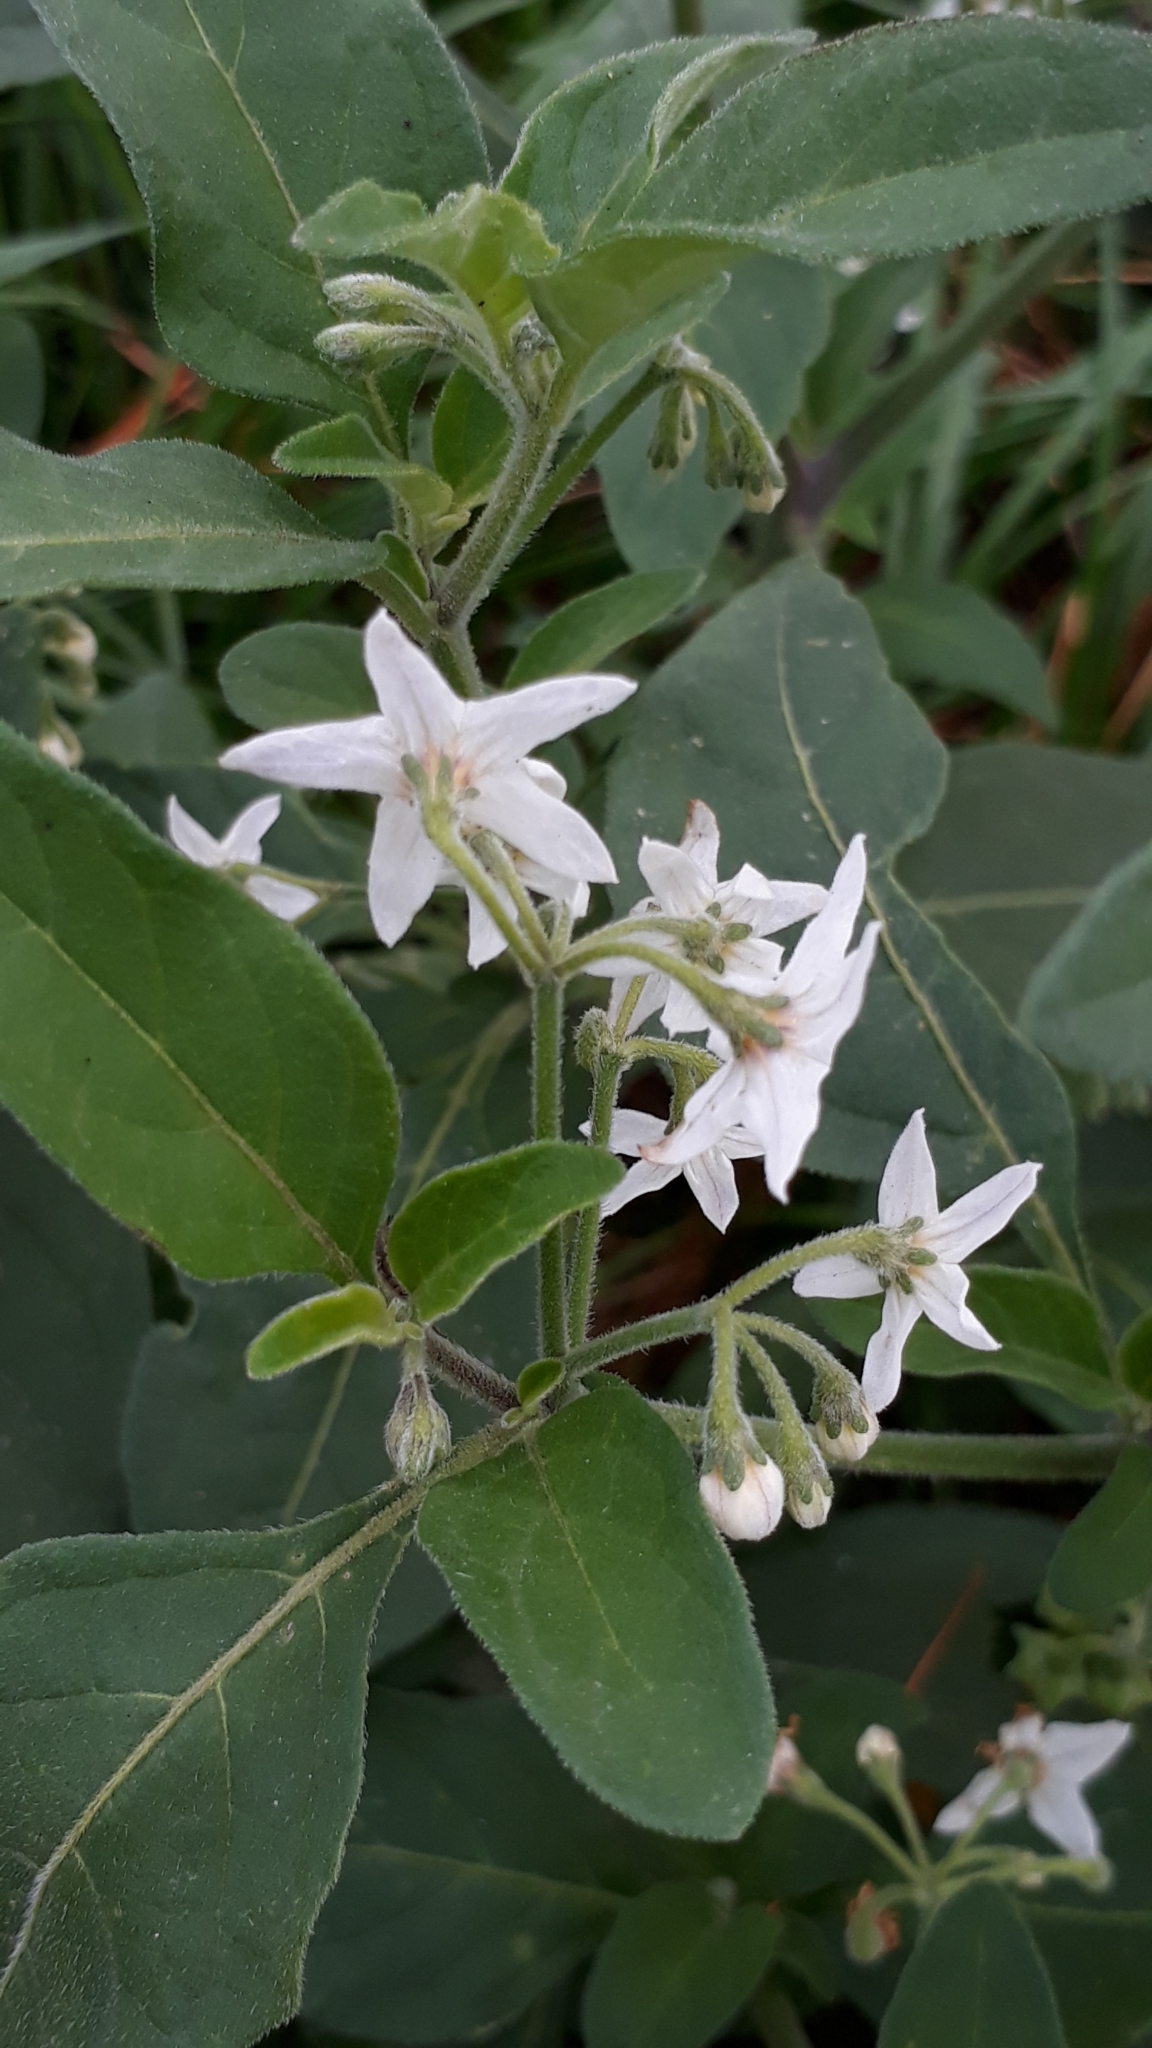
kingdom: Plantae
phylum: Tracheophyta
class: Magnoliopsida
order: Solanales
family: Solanaceae
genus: Solanum
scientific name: Solanum chenopodioides
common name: Tall nightshade
